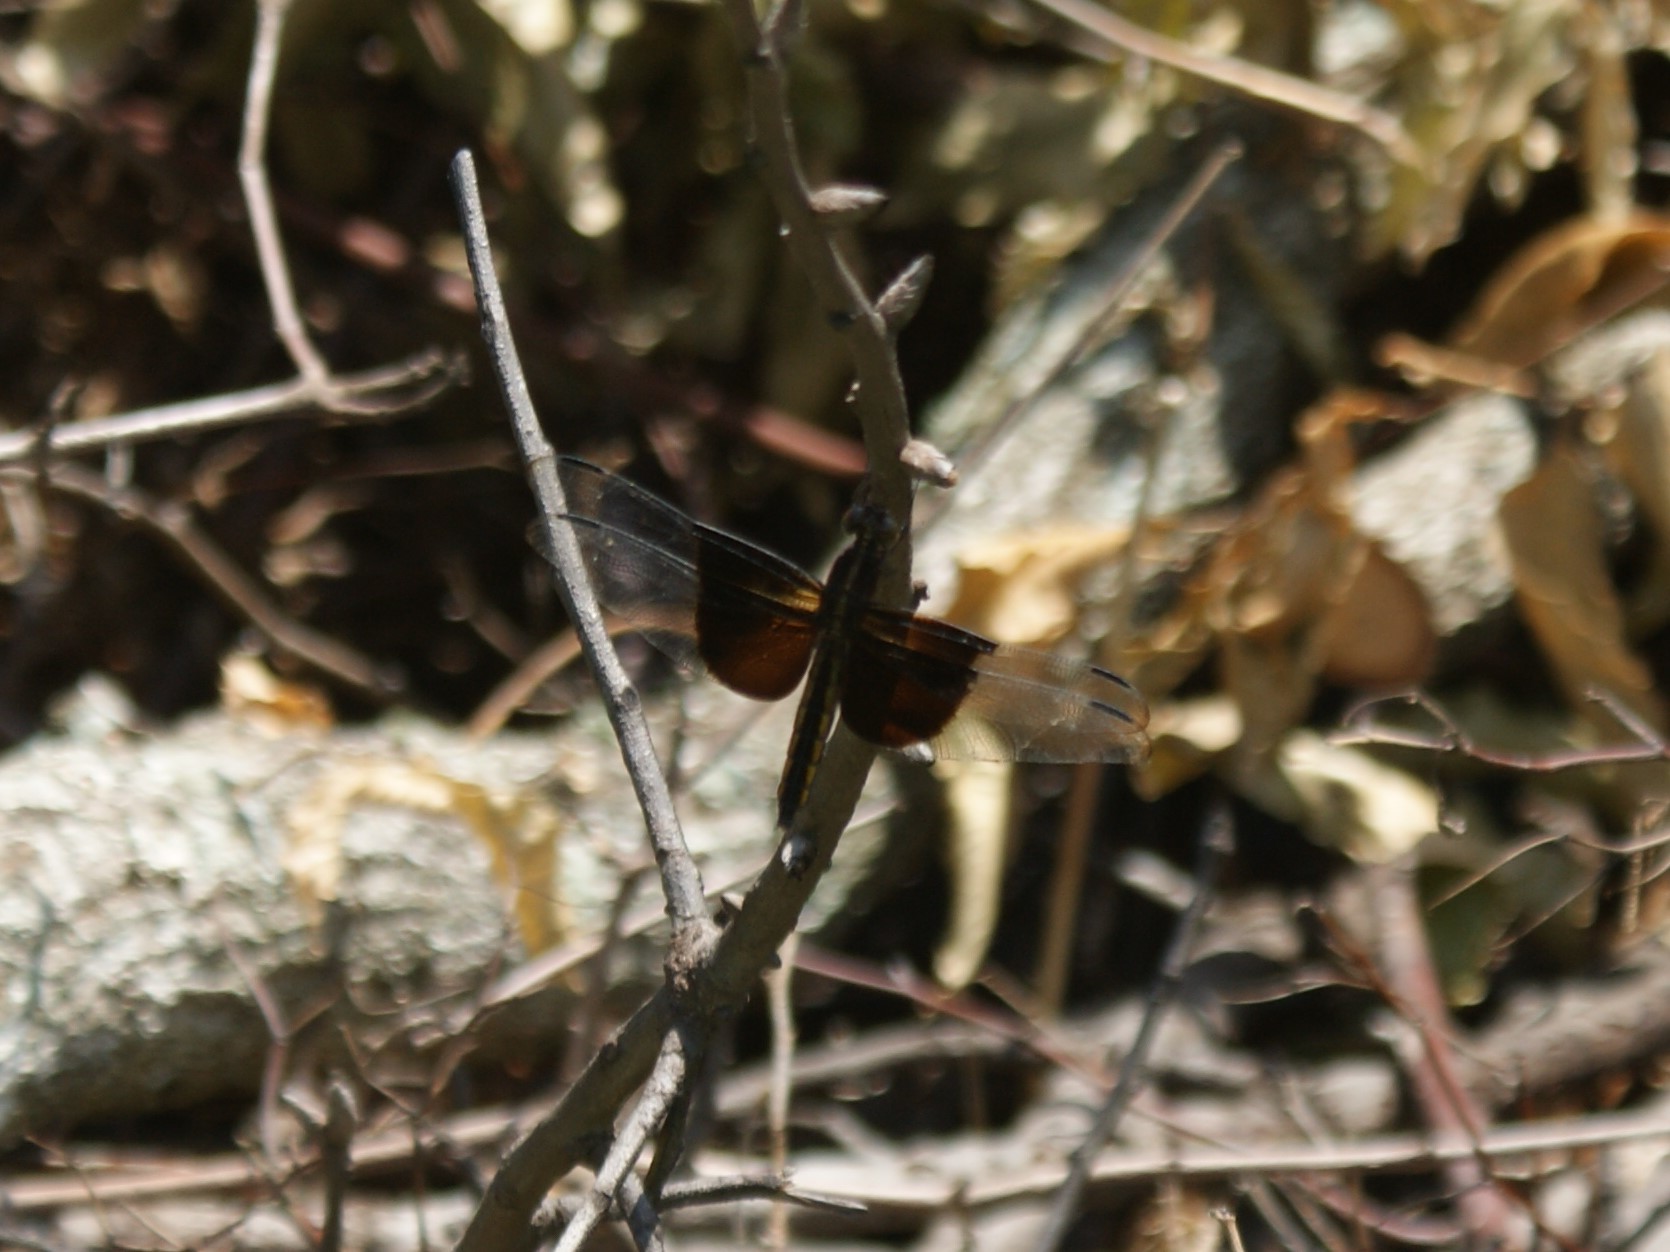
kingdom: Animalia
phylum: Arthropoda
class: Insecta
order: Odonata
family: Libellulidae
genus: Libellula
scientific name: Libellula luctuosa
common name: Widow skimmer
